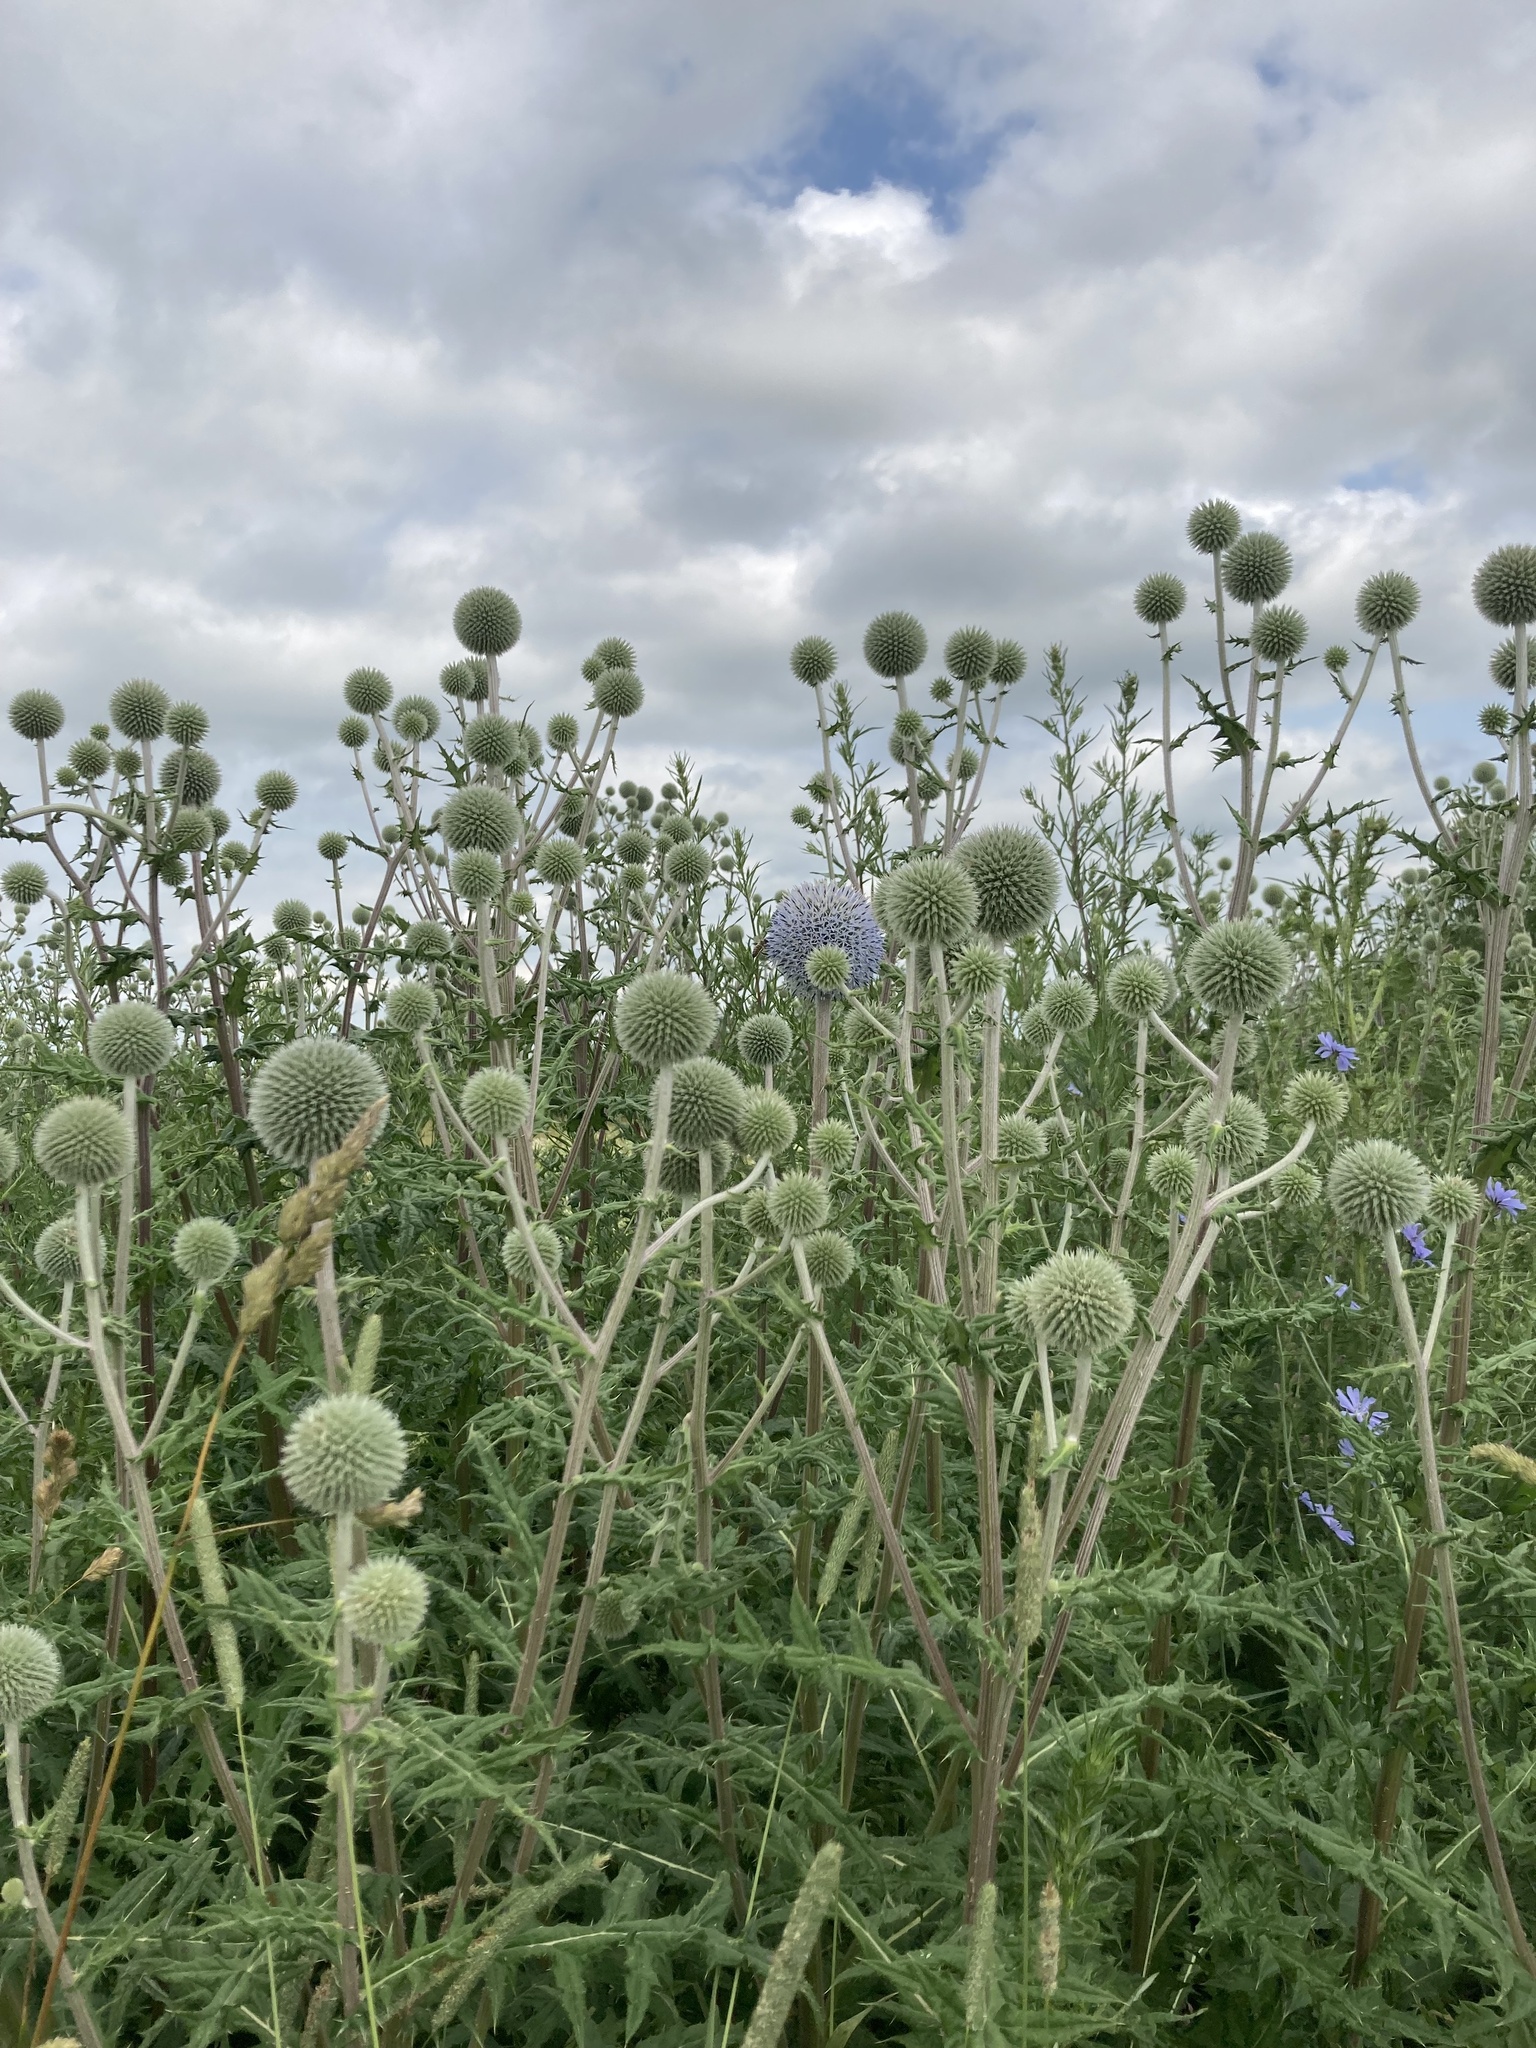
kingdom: Plantae
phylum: Tracheophyta
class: Magnoliopsida
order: Asterales
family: Asteraceae
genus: Echinops
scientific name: Echinops sphaerocephalus
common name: Glandular globe-thistle
